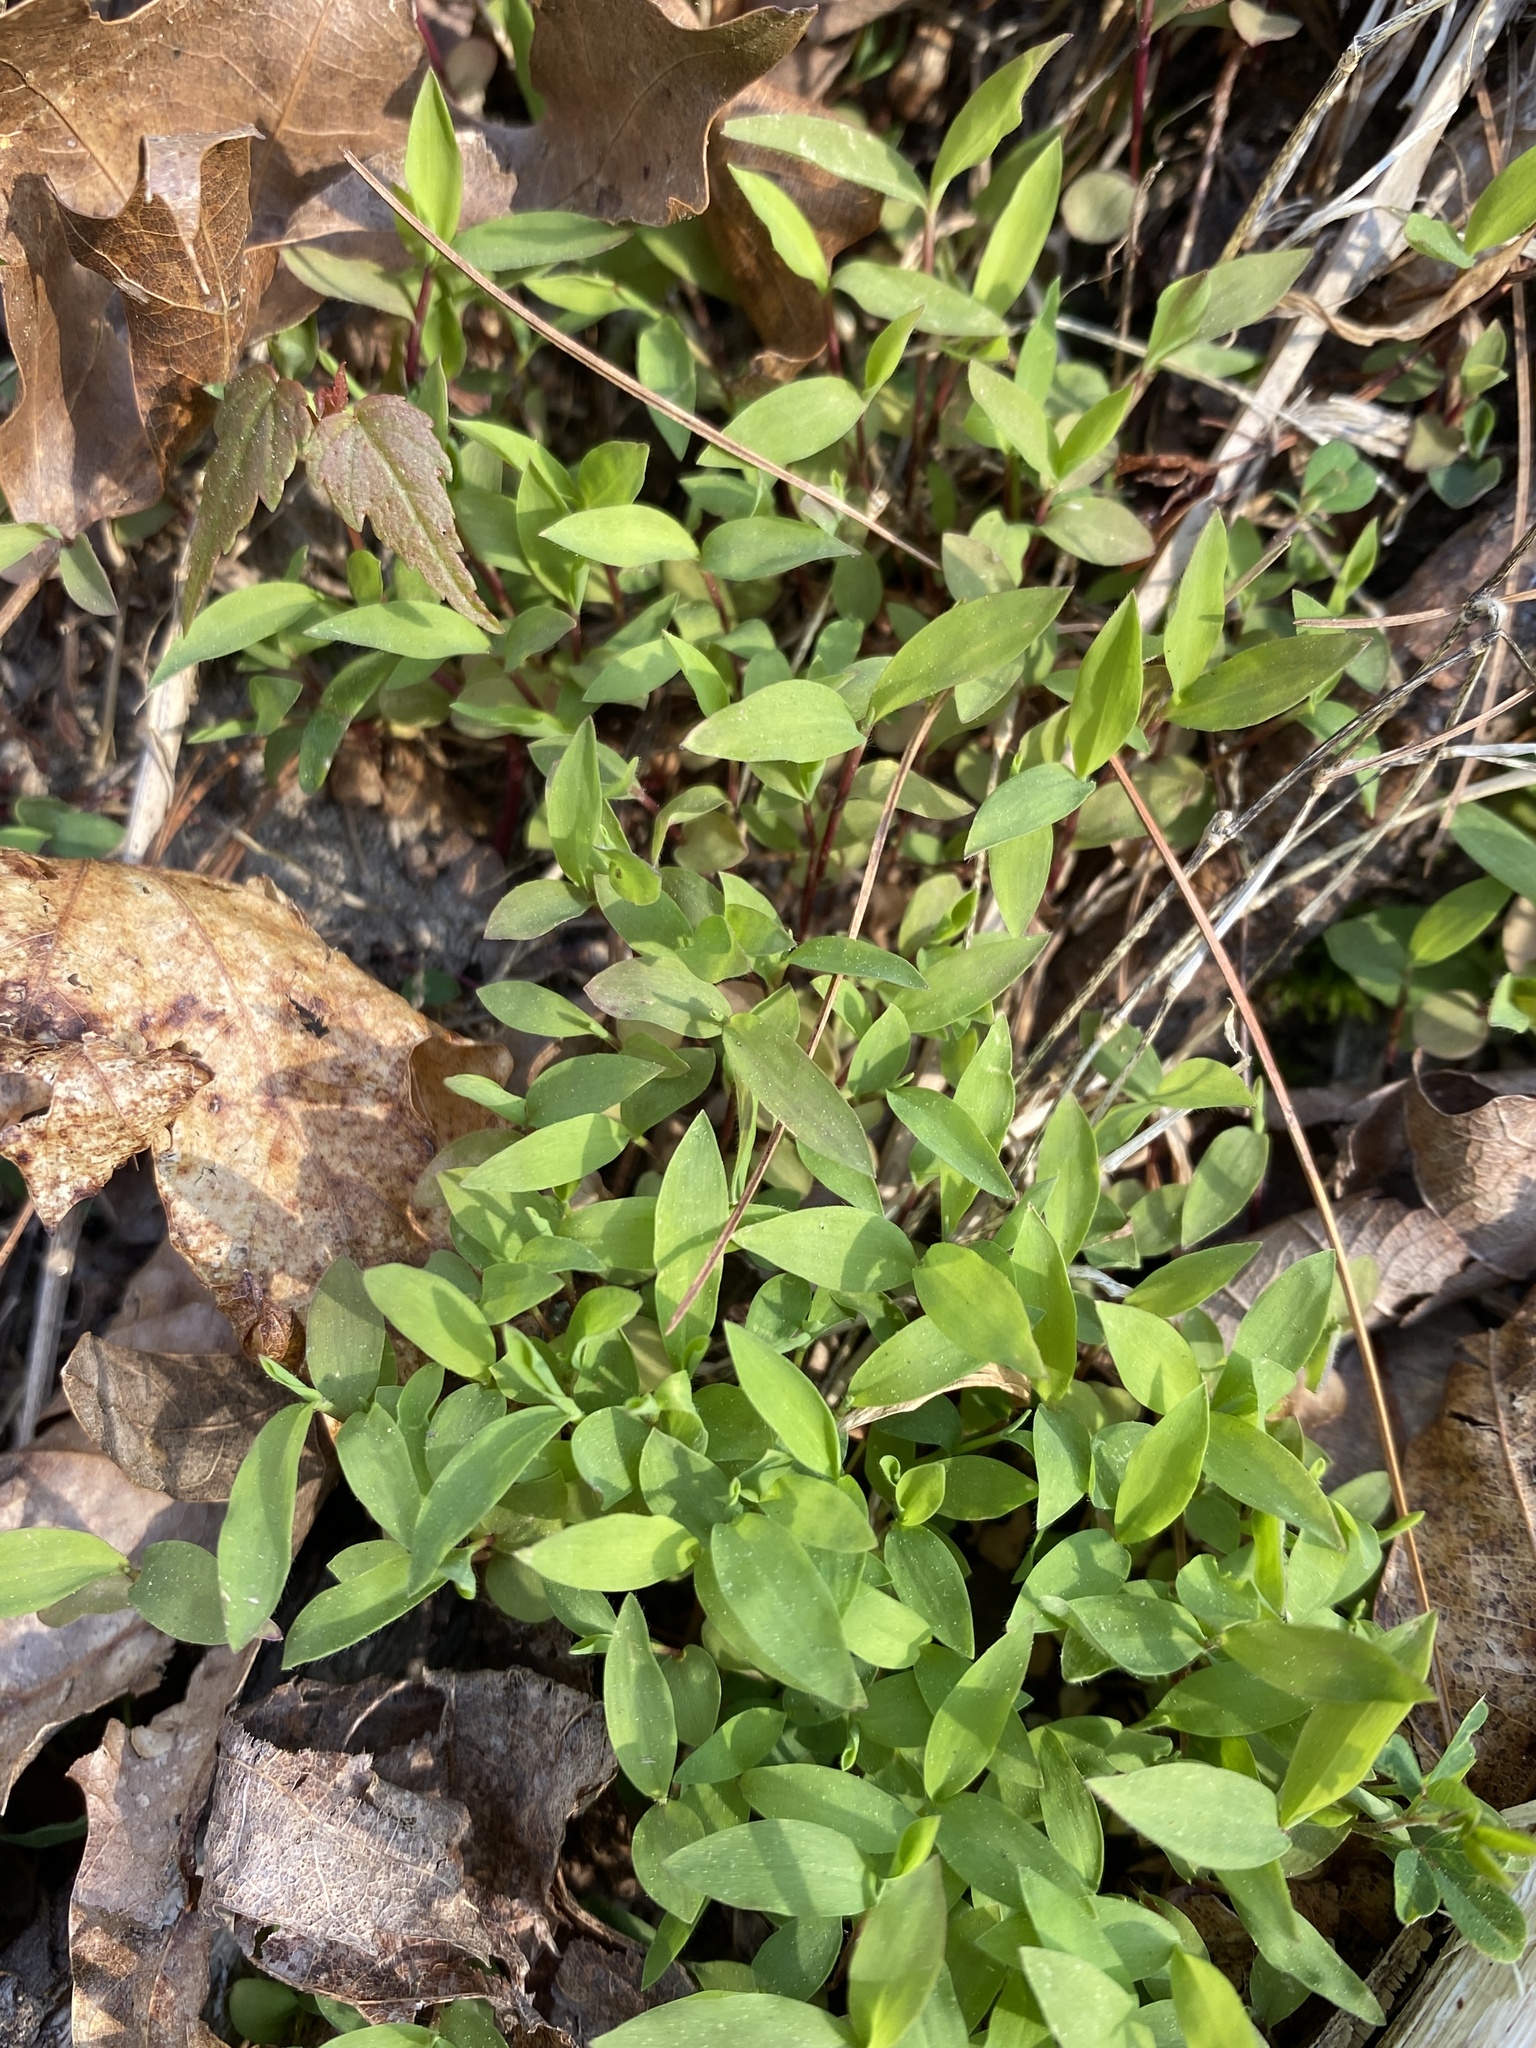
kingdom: Plantae
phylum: Tracheophyta
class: Liliopsida
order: Poales
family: Poaceae
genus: Microstegium
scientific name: Microstegium vimineum
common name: Japanese stiltgrass
